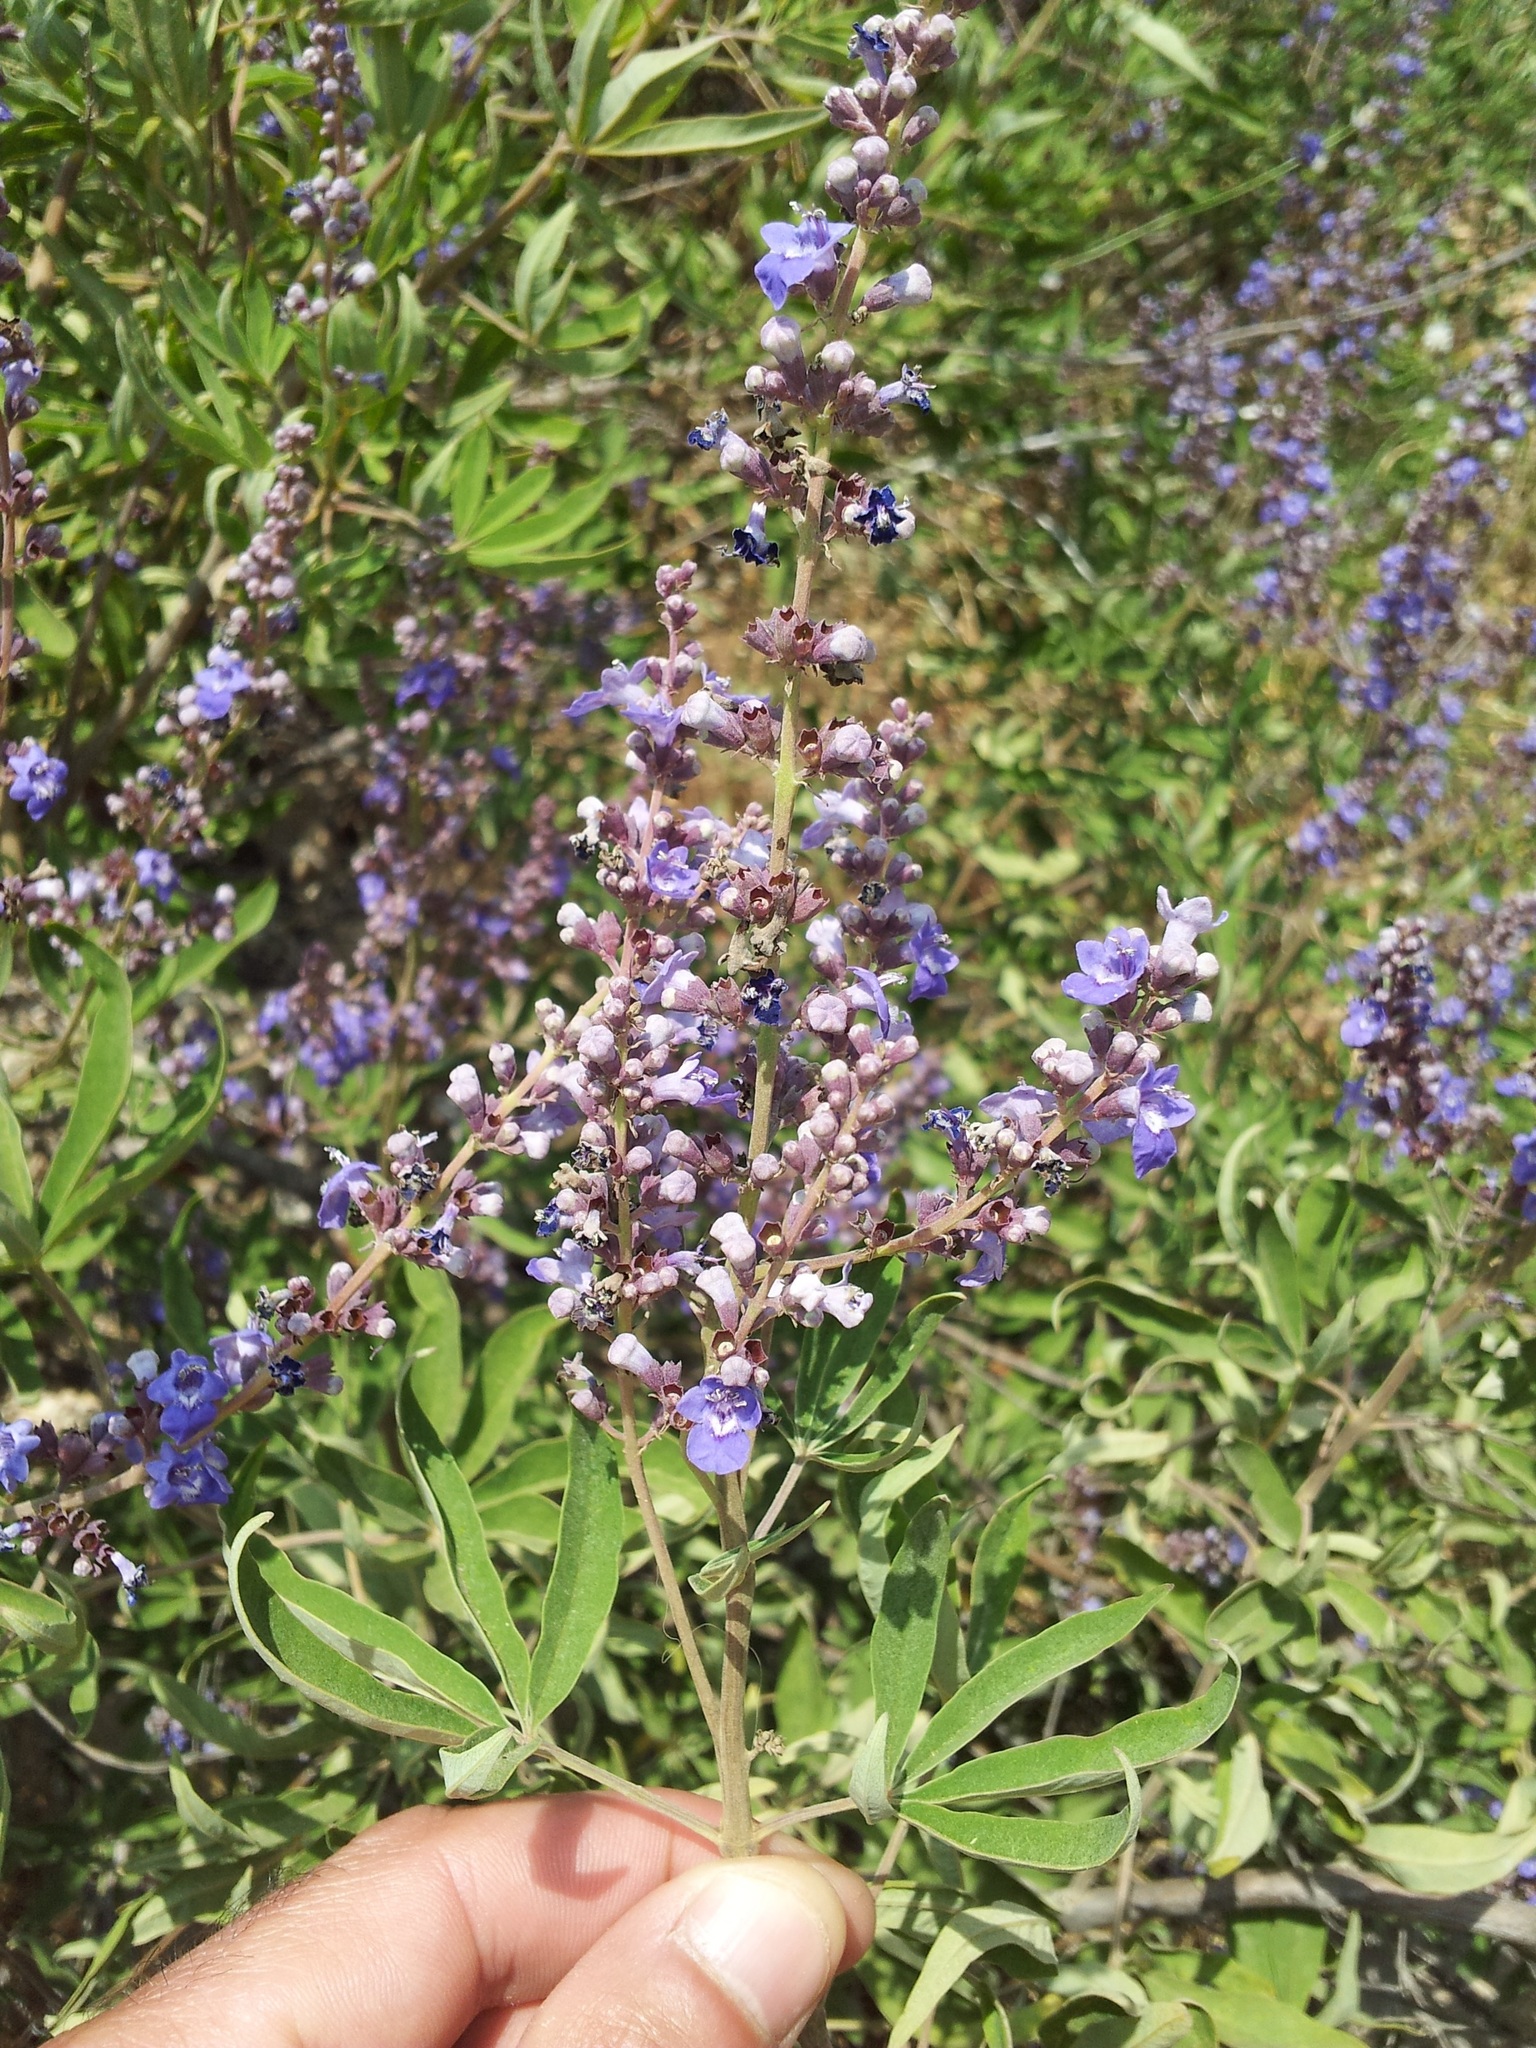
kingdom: Plantae
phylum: Tracheophyta
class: Magnoliopsida
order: Lamiales
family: Lamiaceae
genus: Vitex
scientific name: Vitex agnus-castus
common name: Chasteberry
